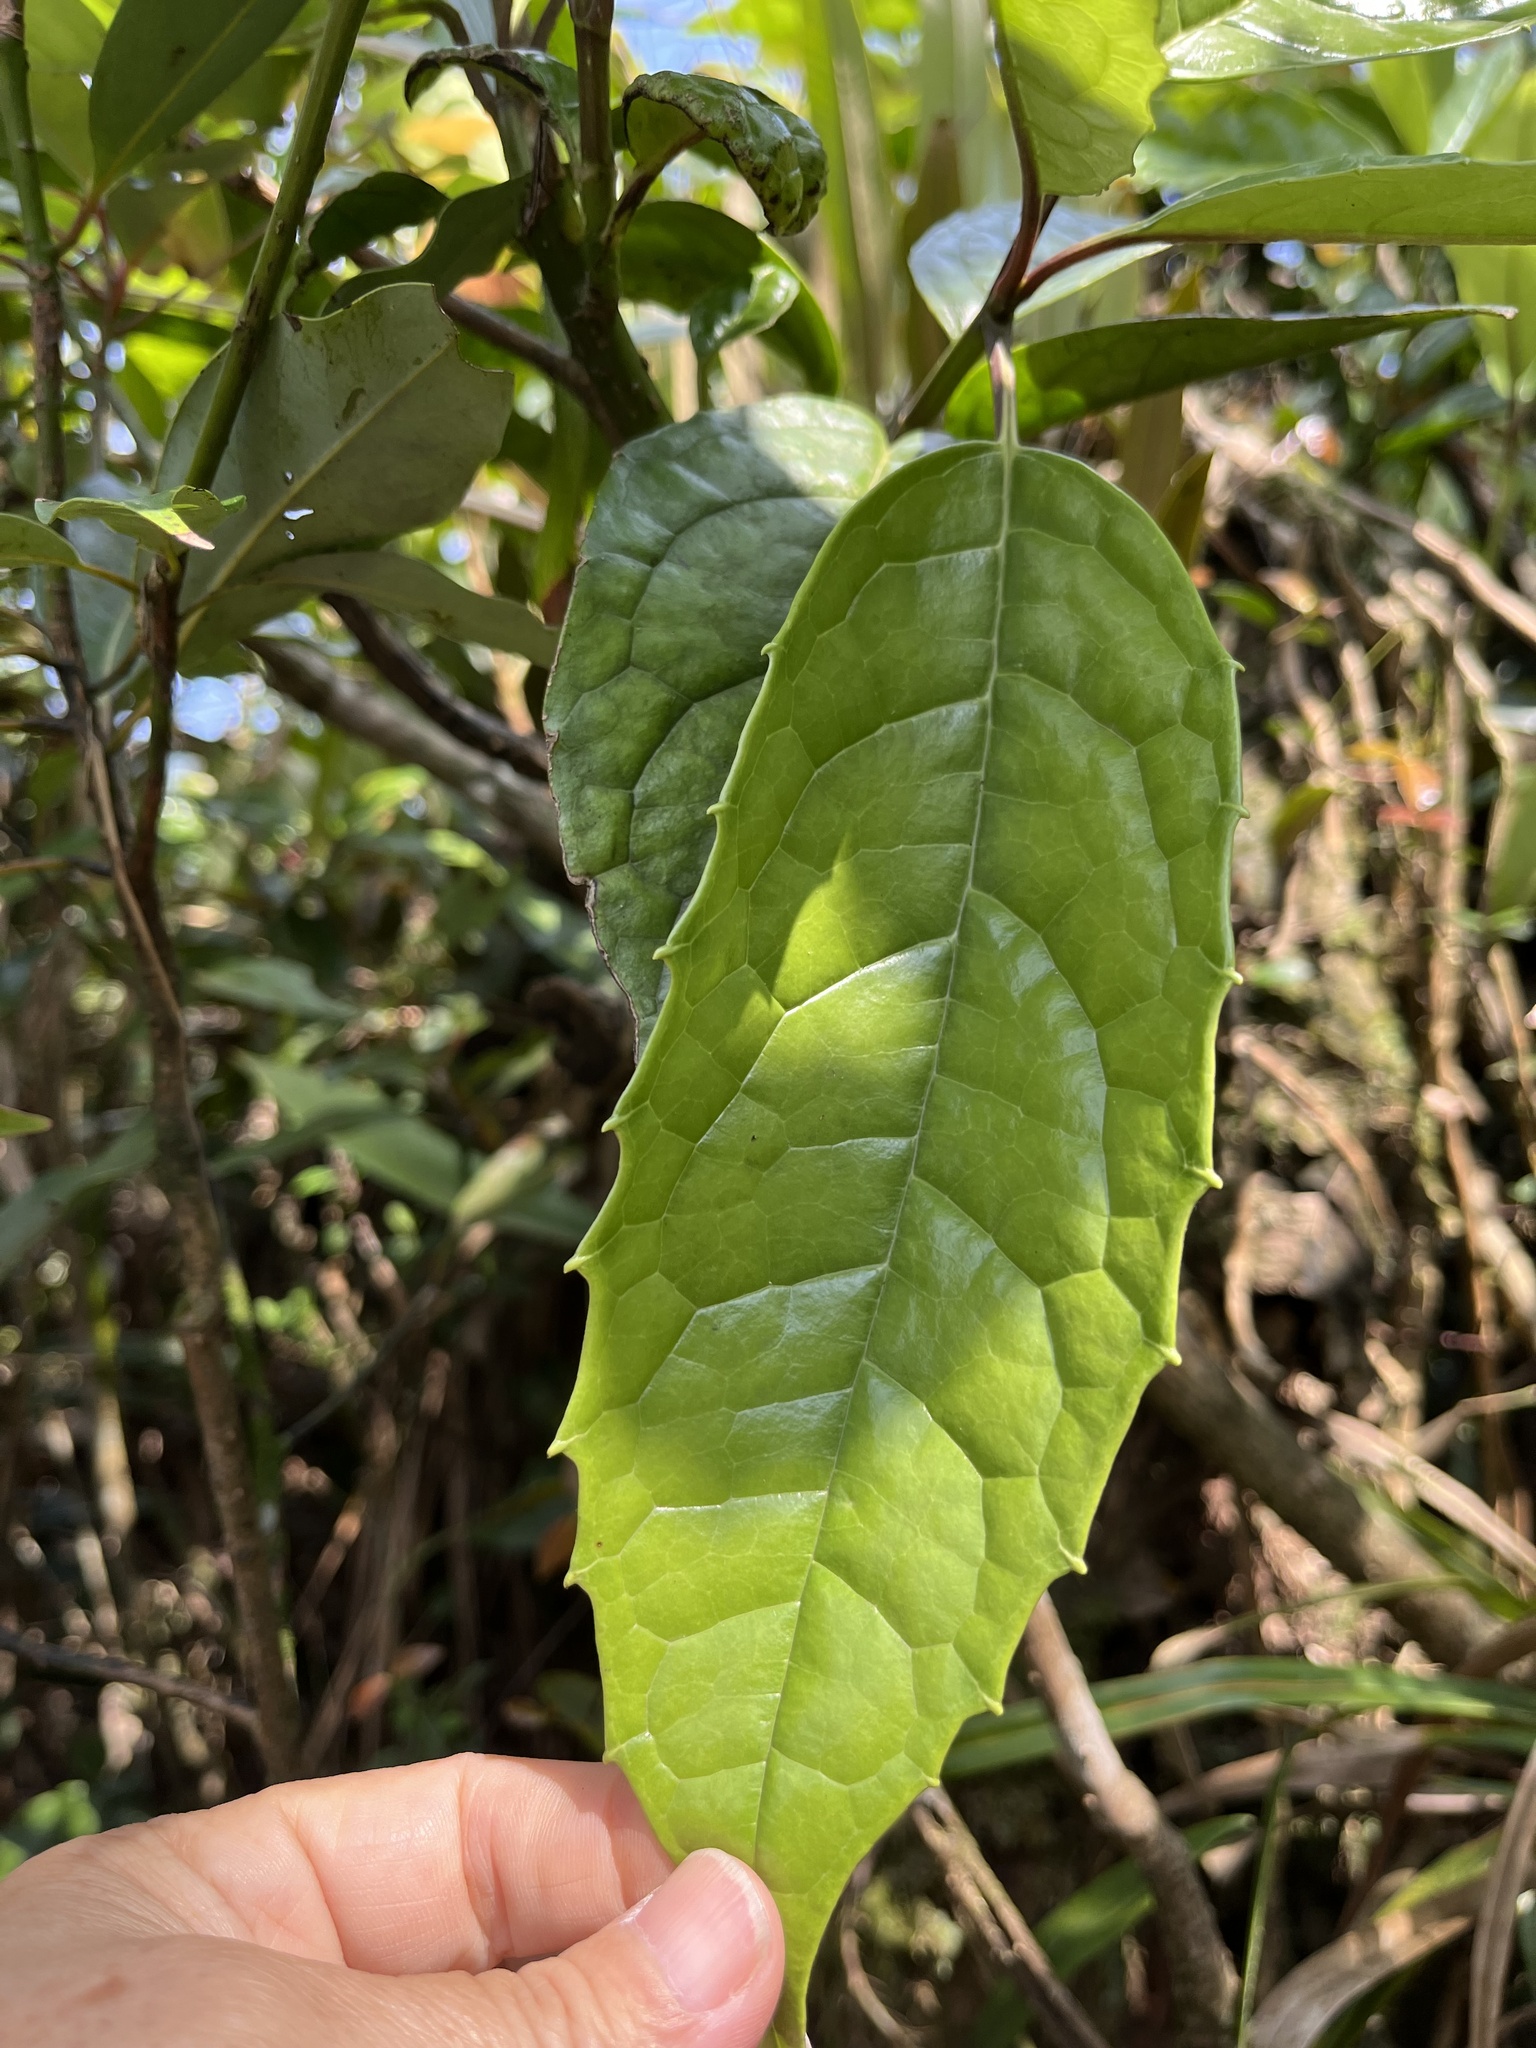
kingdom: Plantae
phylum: Tracheophyta
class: Magnoliopsida
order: Garryales
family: Garryaceae
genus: Aucuba
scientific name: Aucuba japonica
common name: Spotted-laurel
